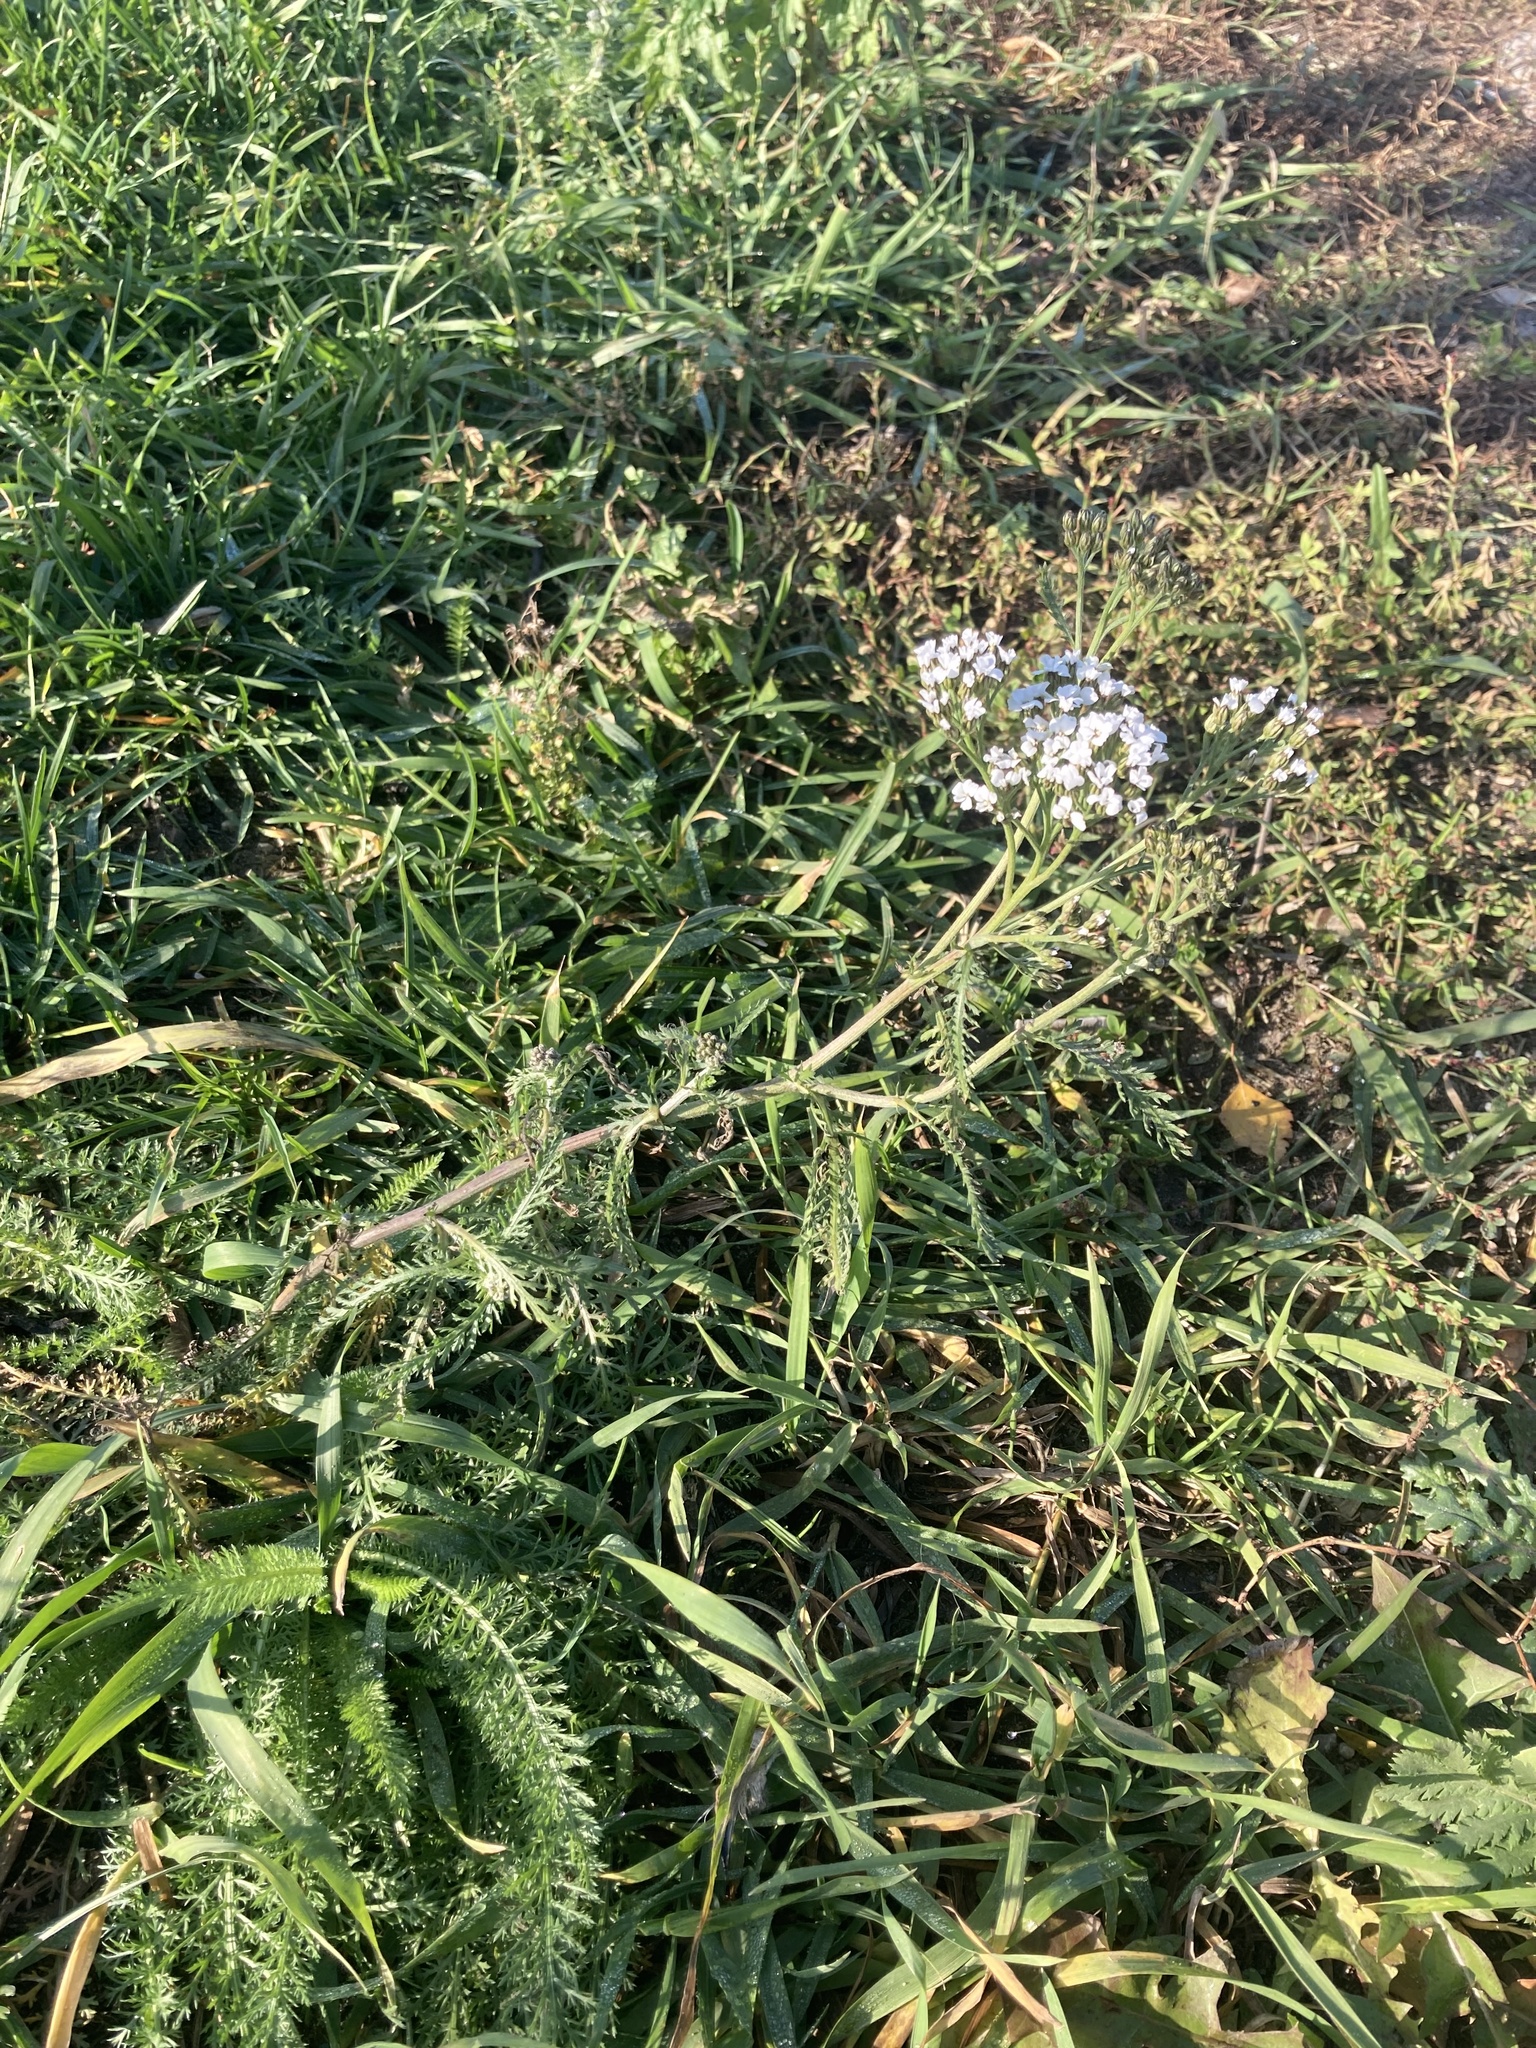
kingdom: Plantae
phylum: Tracheophyta
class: Magnoliopsida
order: Asterales
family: Asteraceae
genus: Achillea
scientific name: Achillea millefolium
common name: Yarrow
